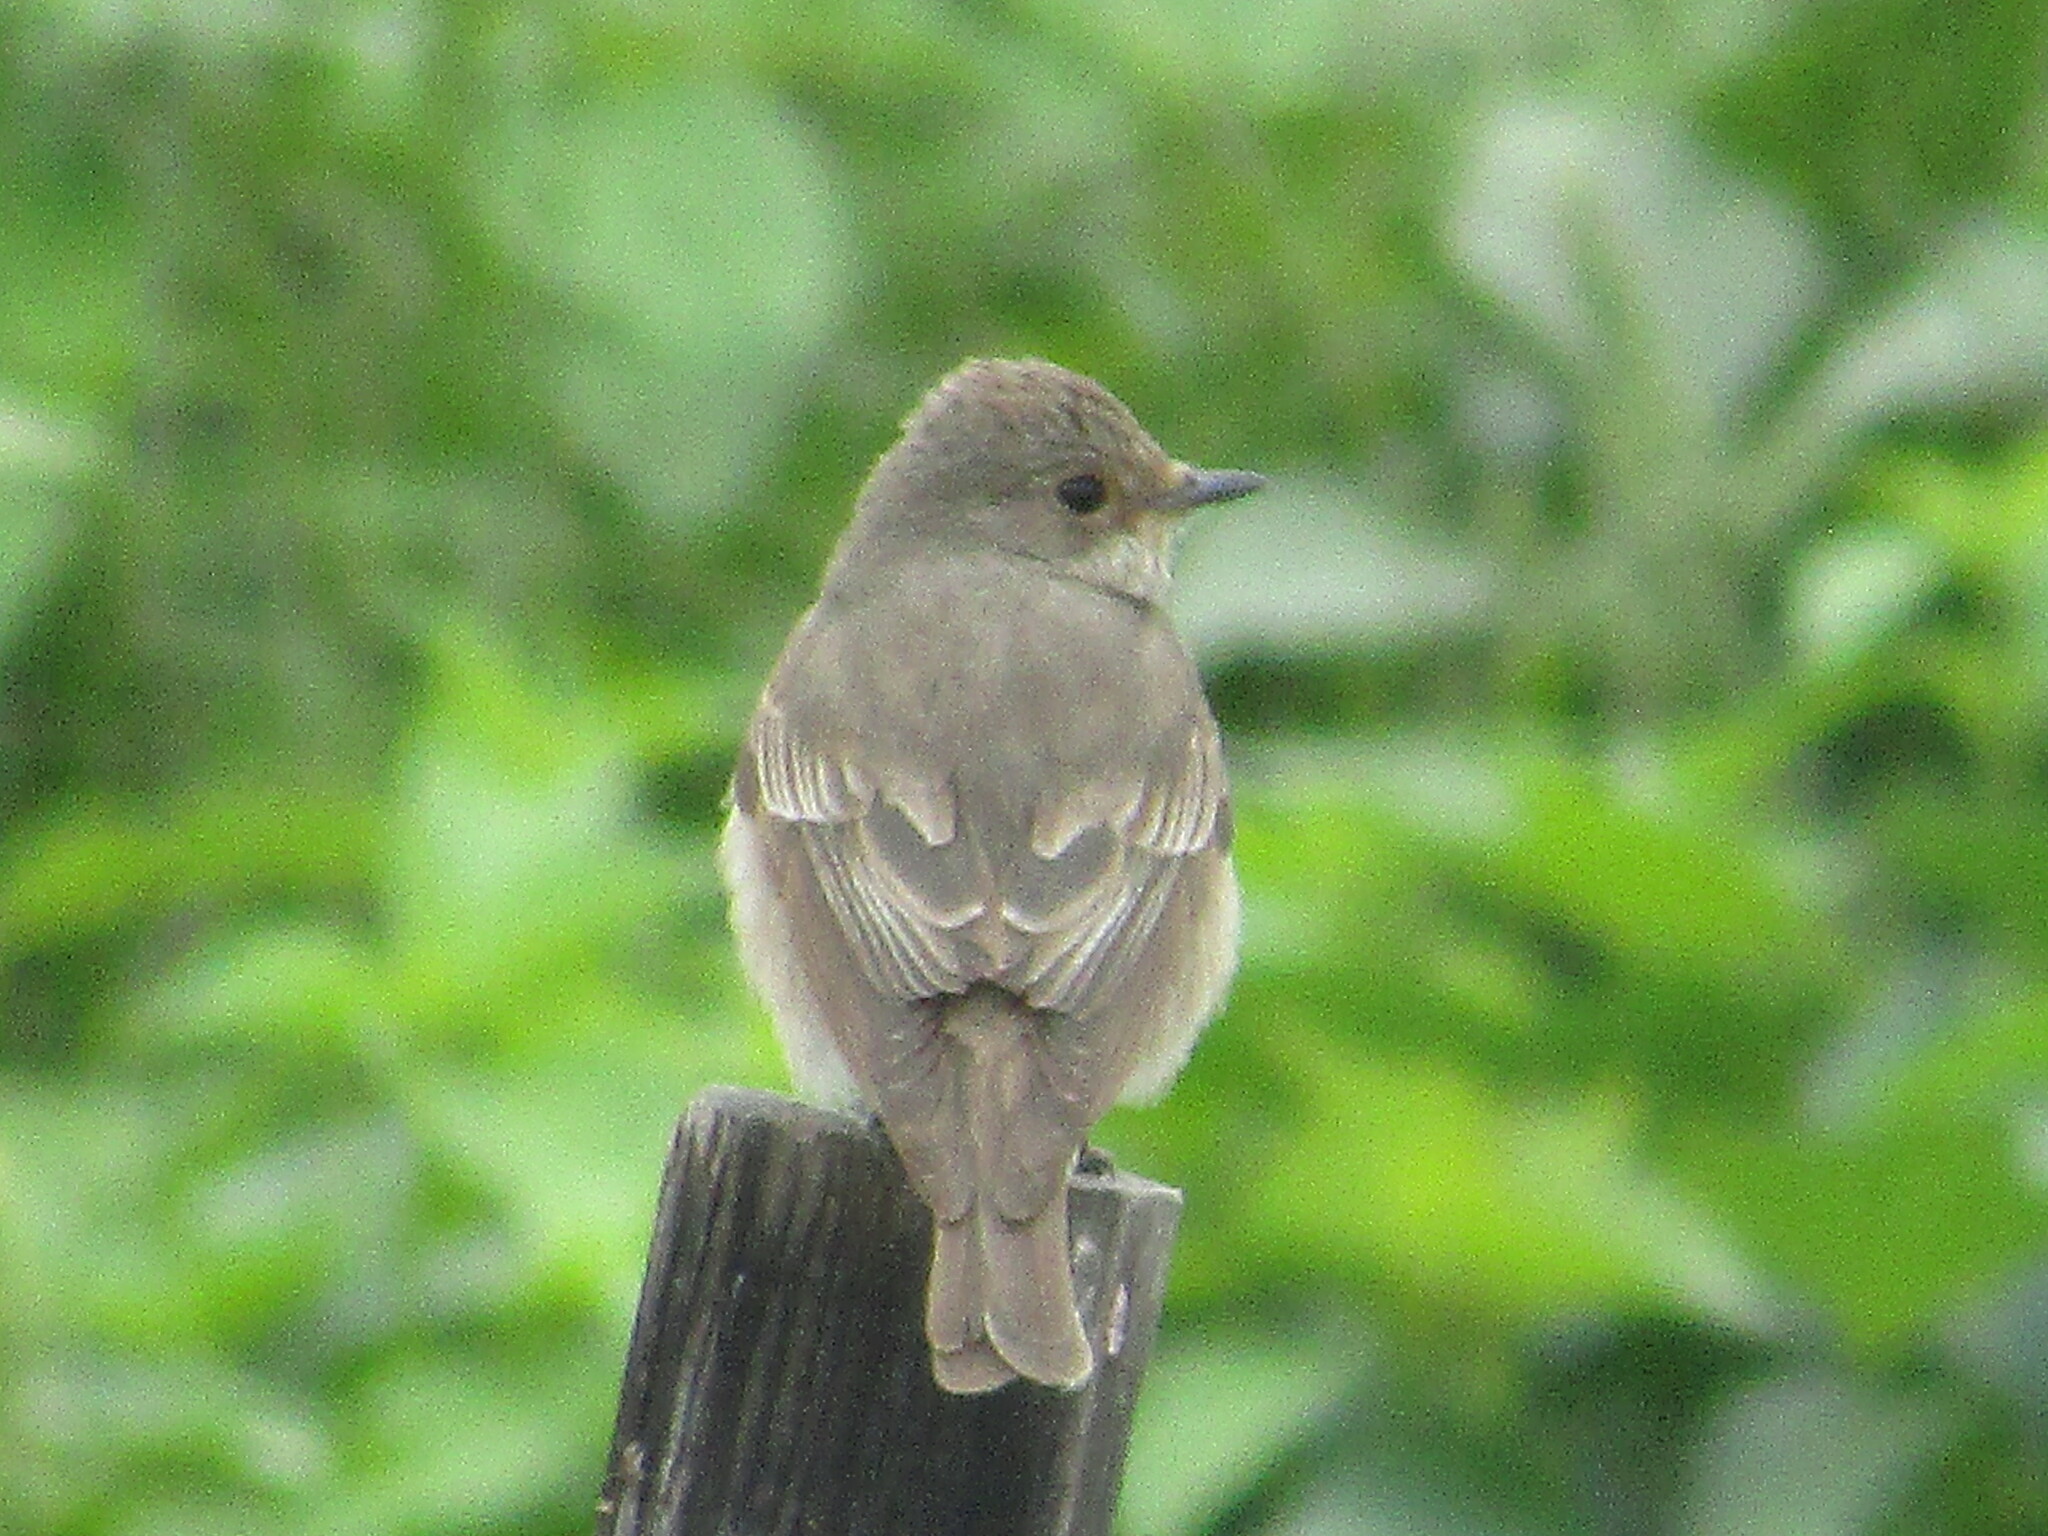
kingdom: Animalia
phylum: Chordata
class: Aves
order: Passeriformes
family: Muscicapidae
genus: Muscicapa
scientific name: Muscicapa striata
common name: Spotted flycatcher
